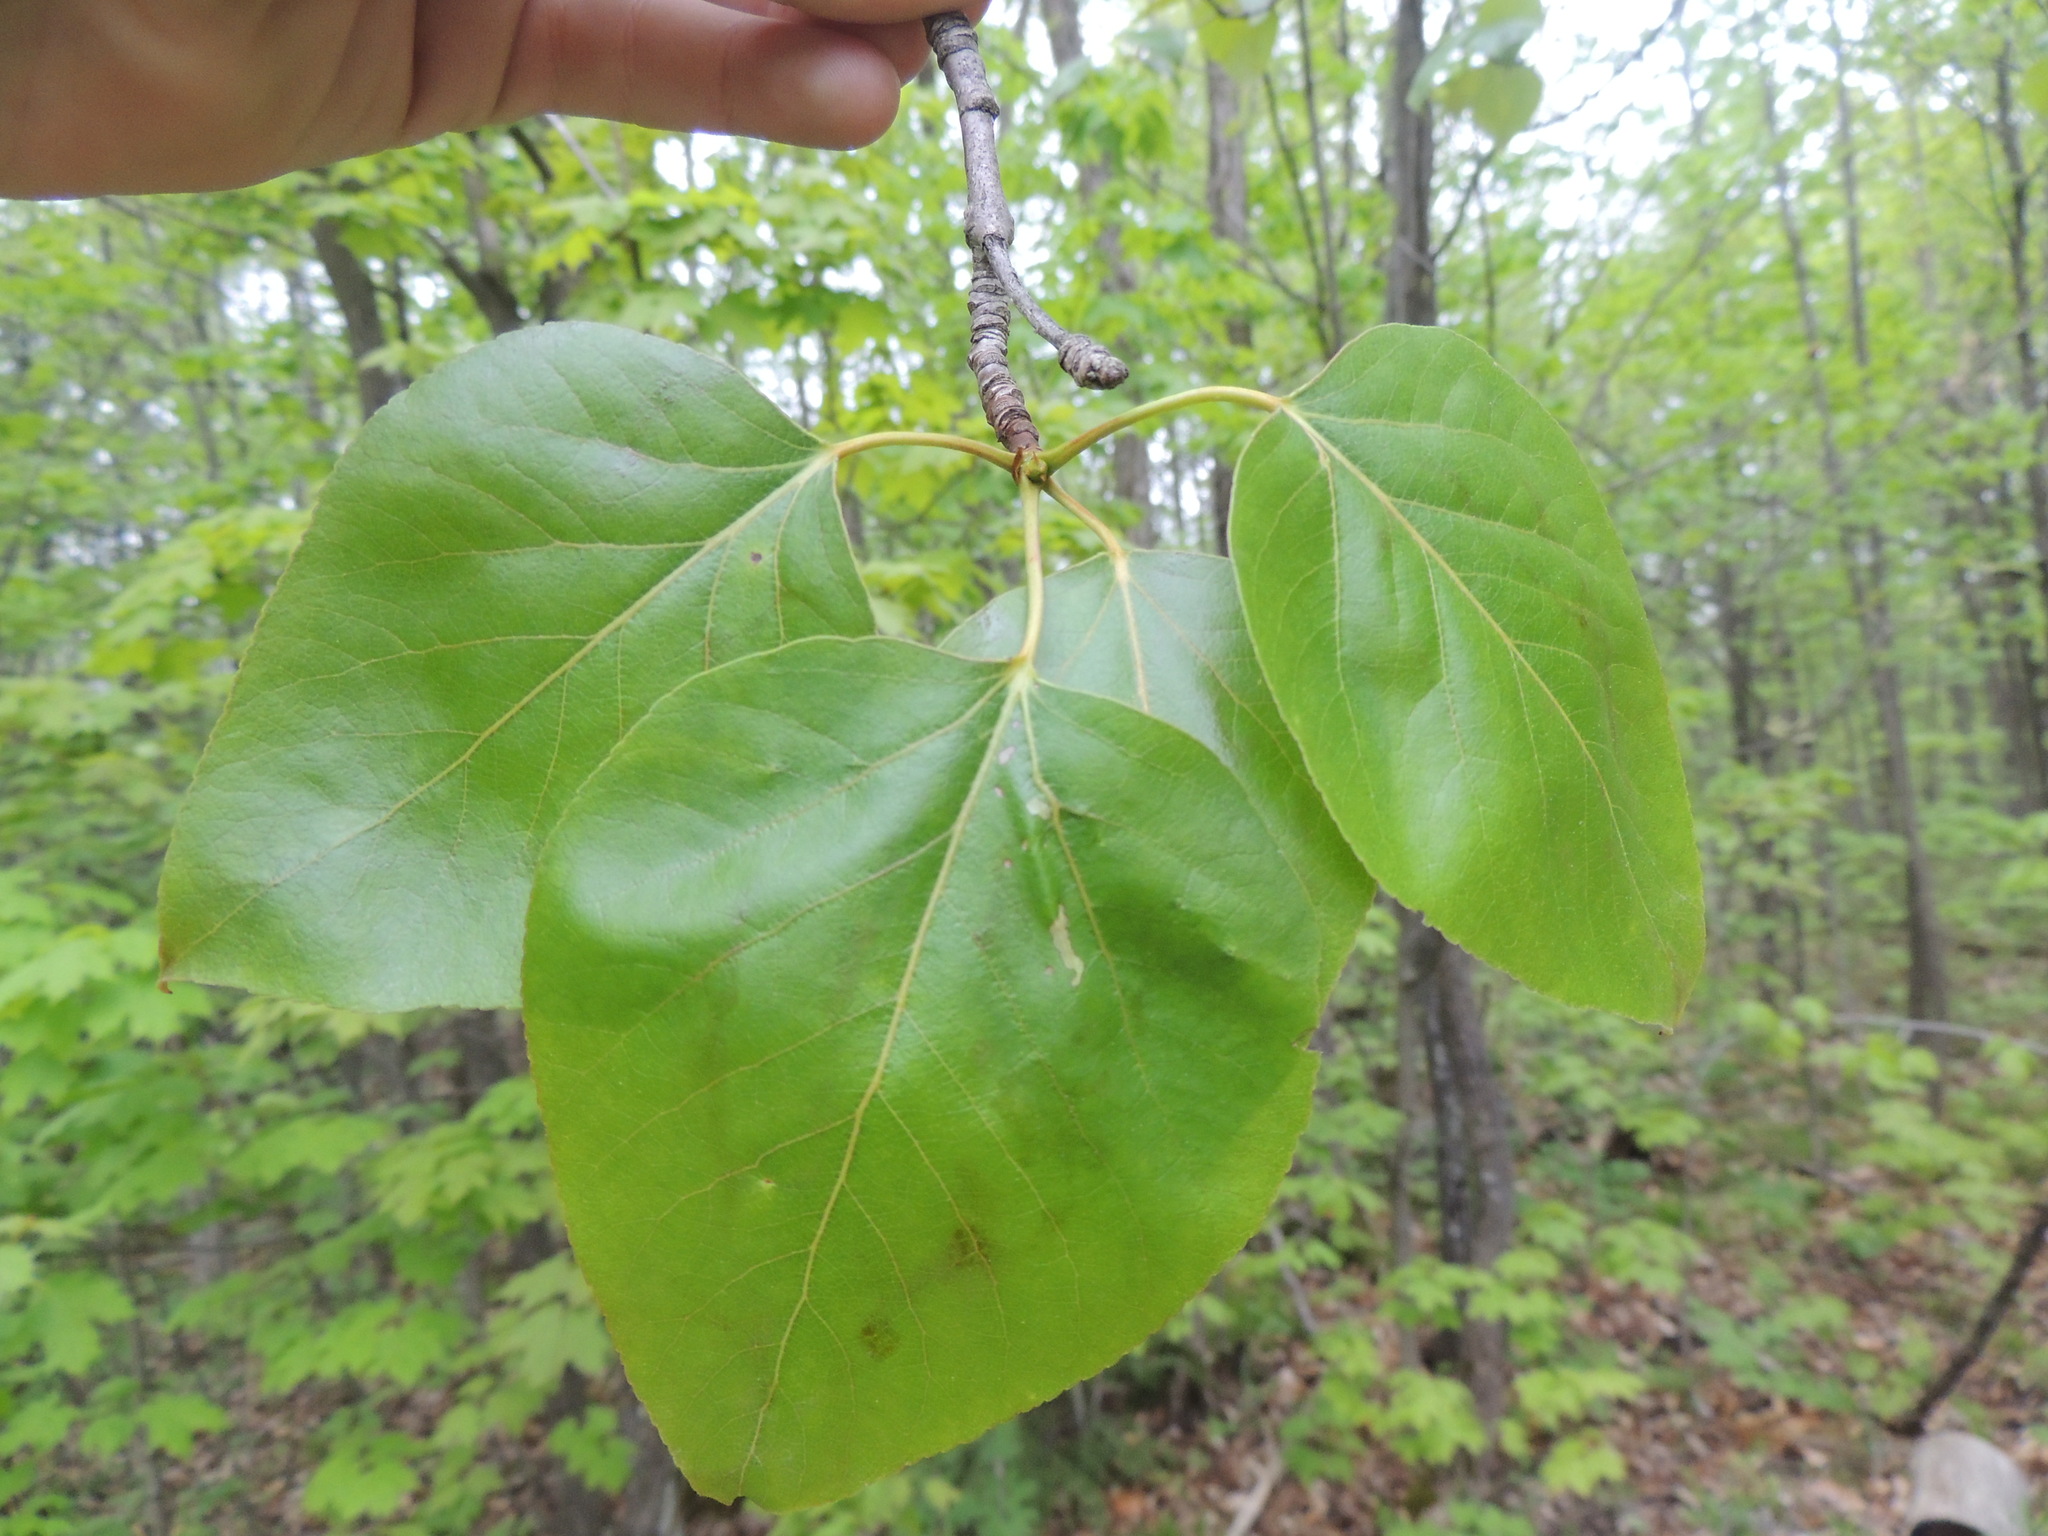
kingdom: Plantae
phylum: Tracheophyta
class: Magnoliopsida
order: Malpighiales
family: Salicaceae
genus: Populus
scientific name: Populus balsamifera
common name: Balsam poplar
